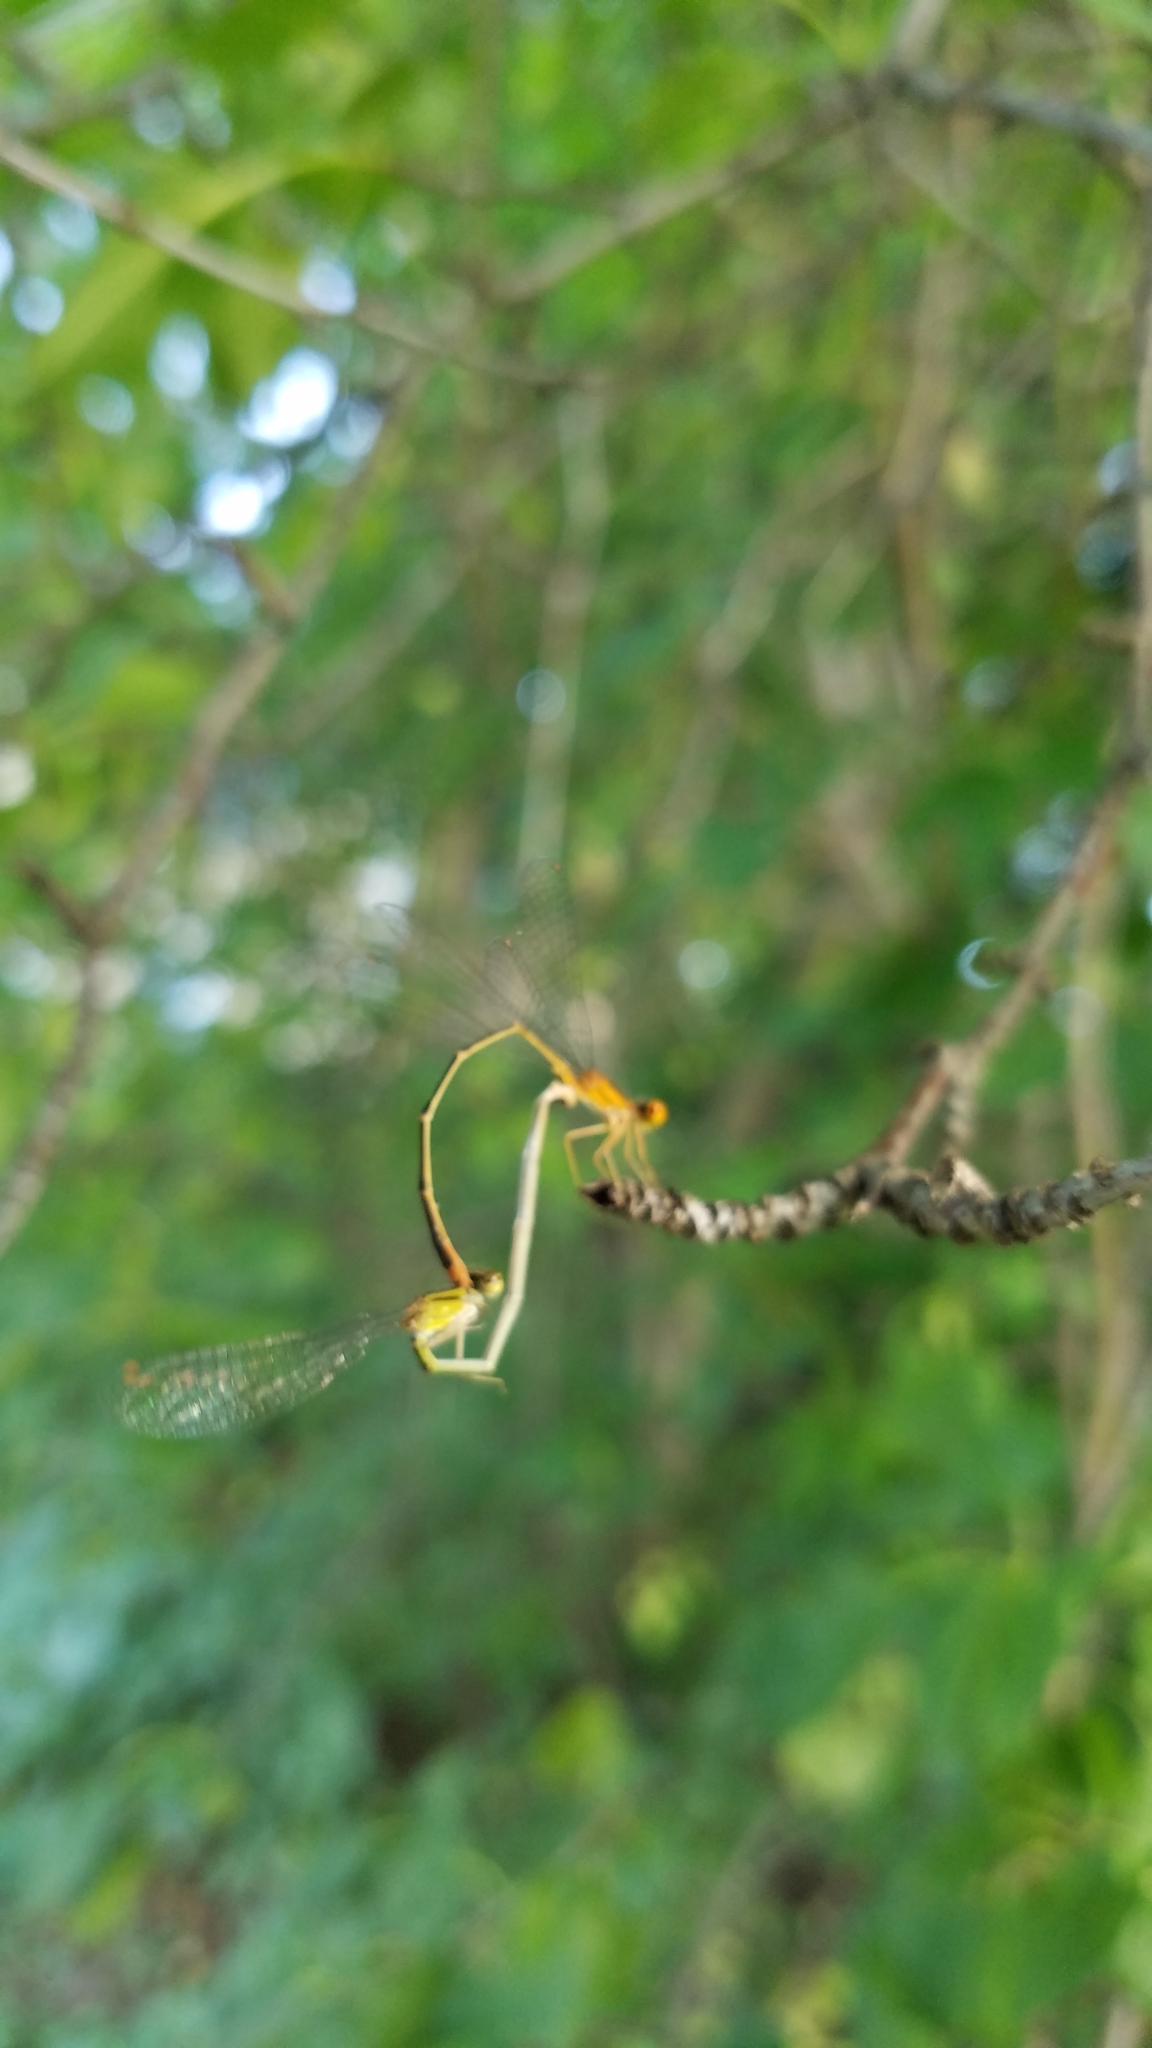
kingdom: Animalia
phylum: Arthropoda
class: Insecta
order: Odonata
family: Coenagrionidae
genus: Enallagma
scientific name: Enallagma signatum
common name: Orange bluet
